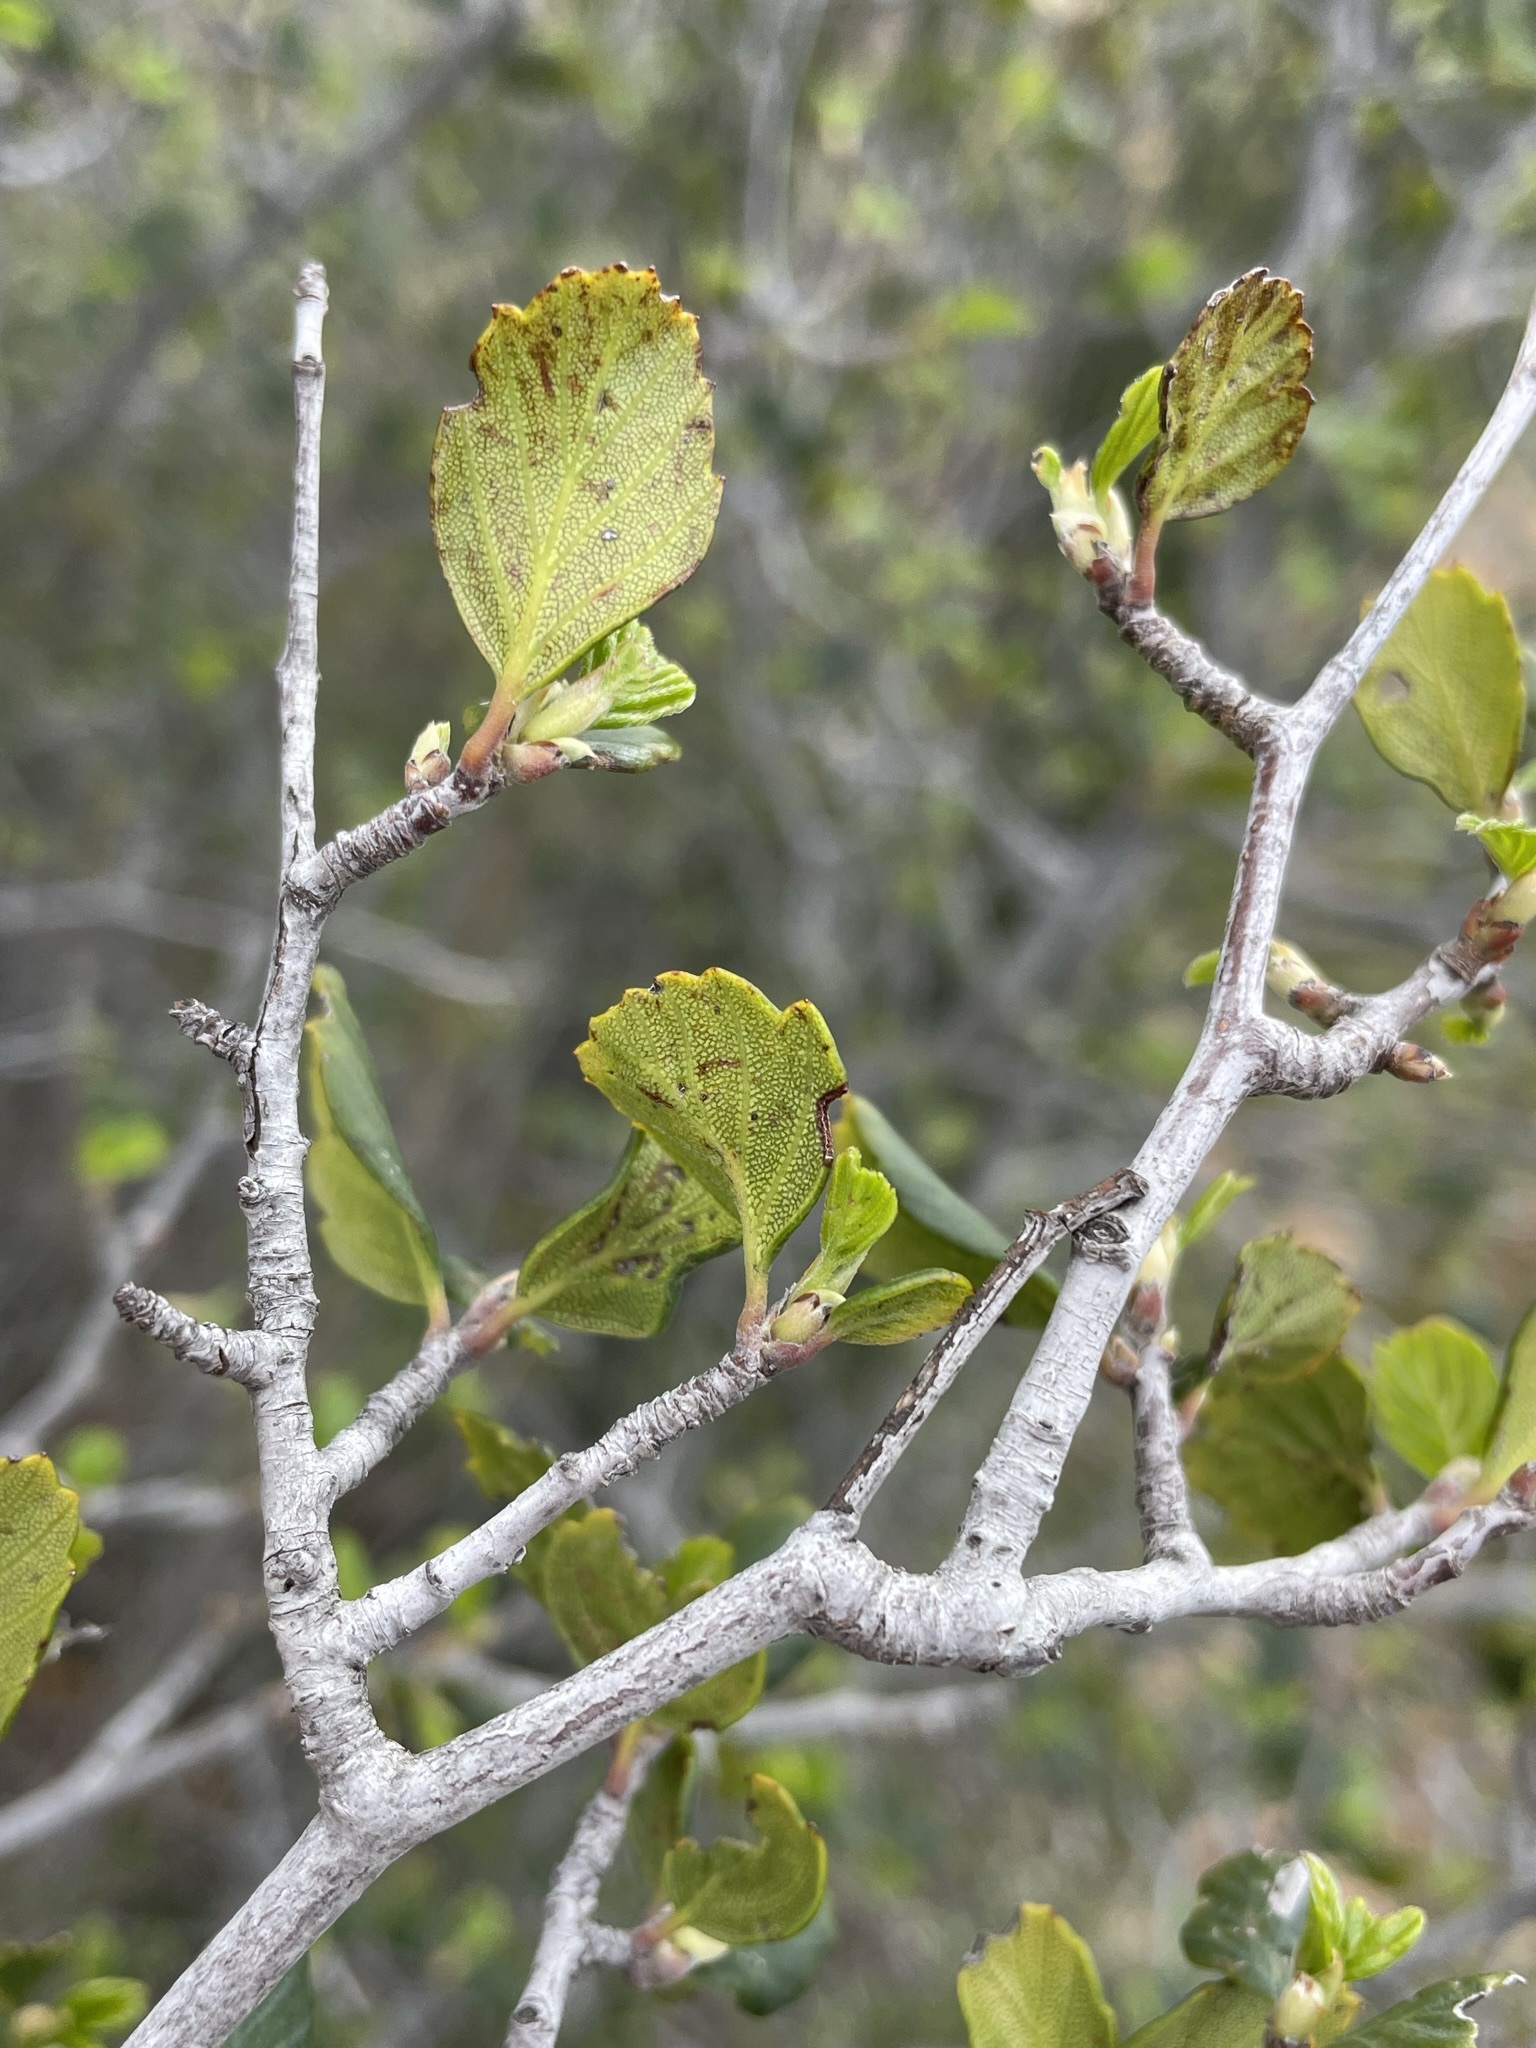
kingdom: Plantae
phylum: Tracheophyta
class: Magnoliopsida
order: Rosales
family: Rosaceae
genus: Cercocarpus
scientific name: Cercocarpus montanus
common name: Alder-leaf cercocarpus
